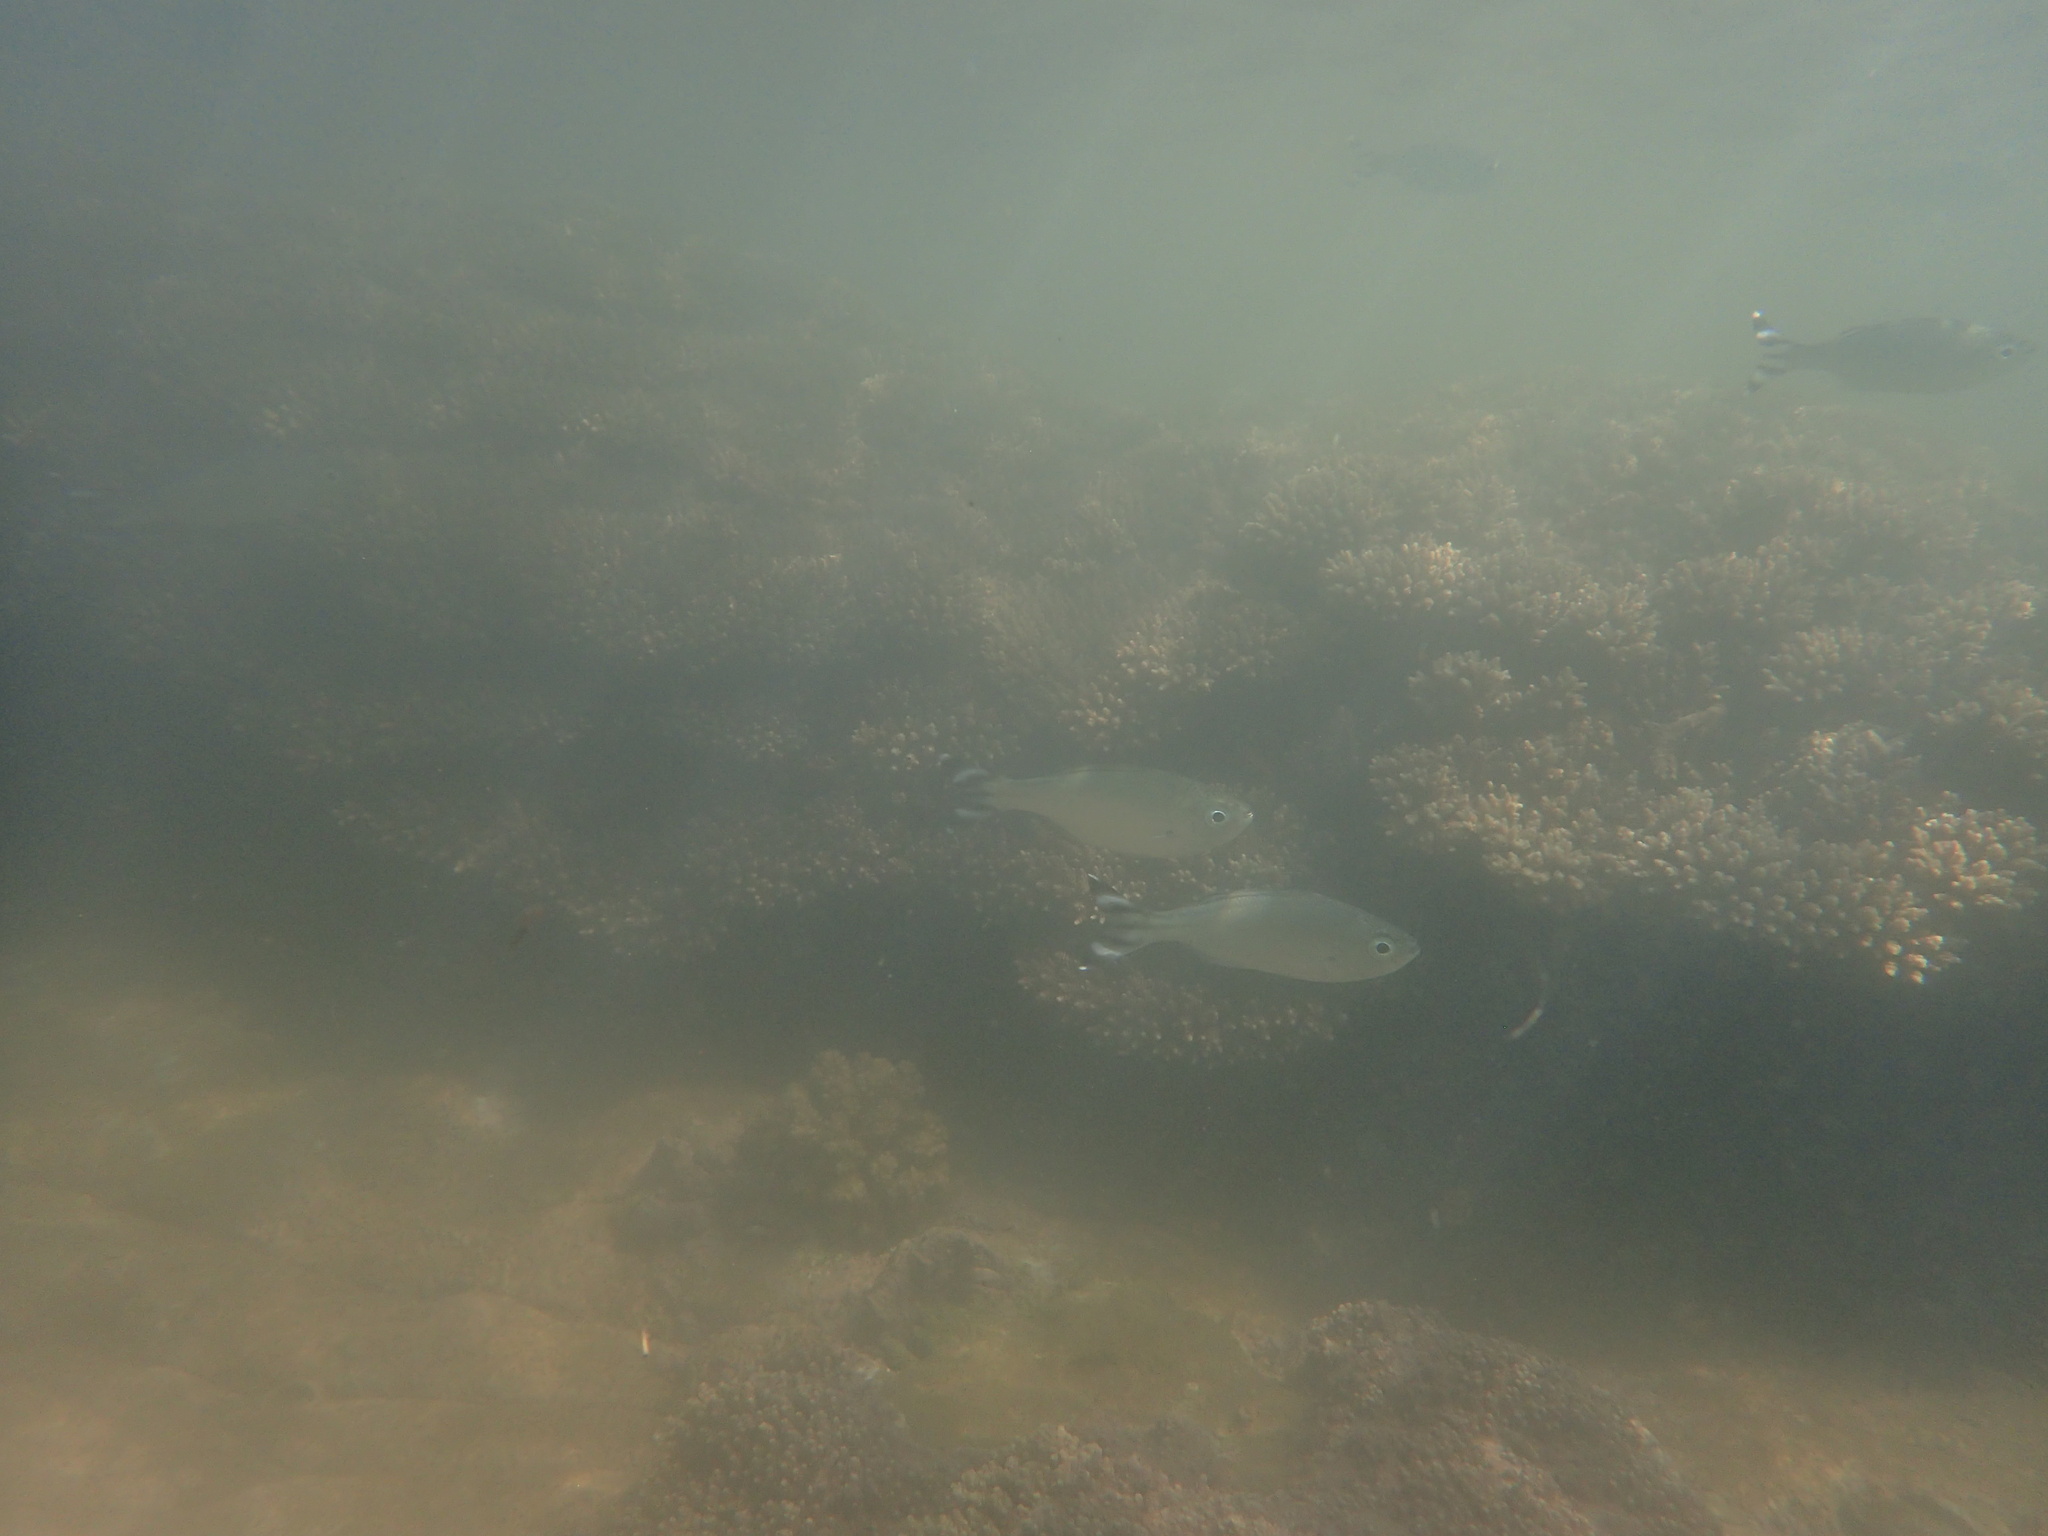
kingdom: Animalia
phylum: Chordata
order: Perciformes
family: Kuhliidae
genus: Kuhlia
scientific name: Kuhlia mugil
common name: Barred flagtail
